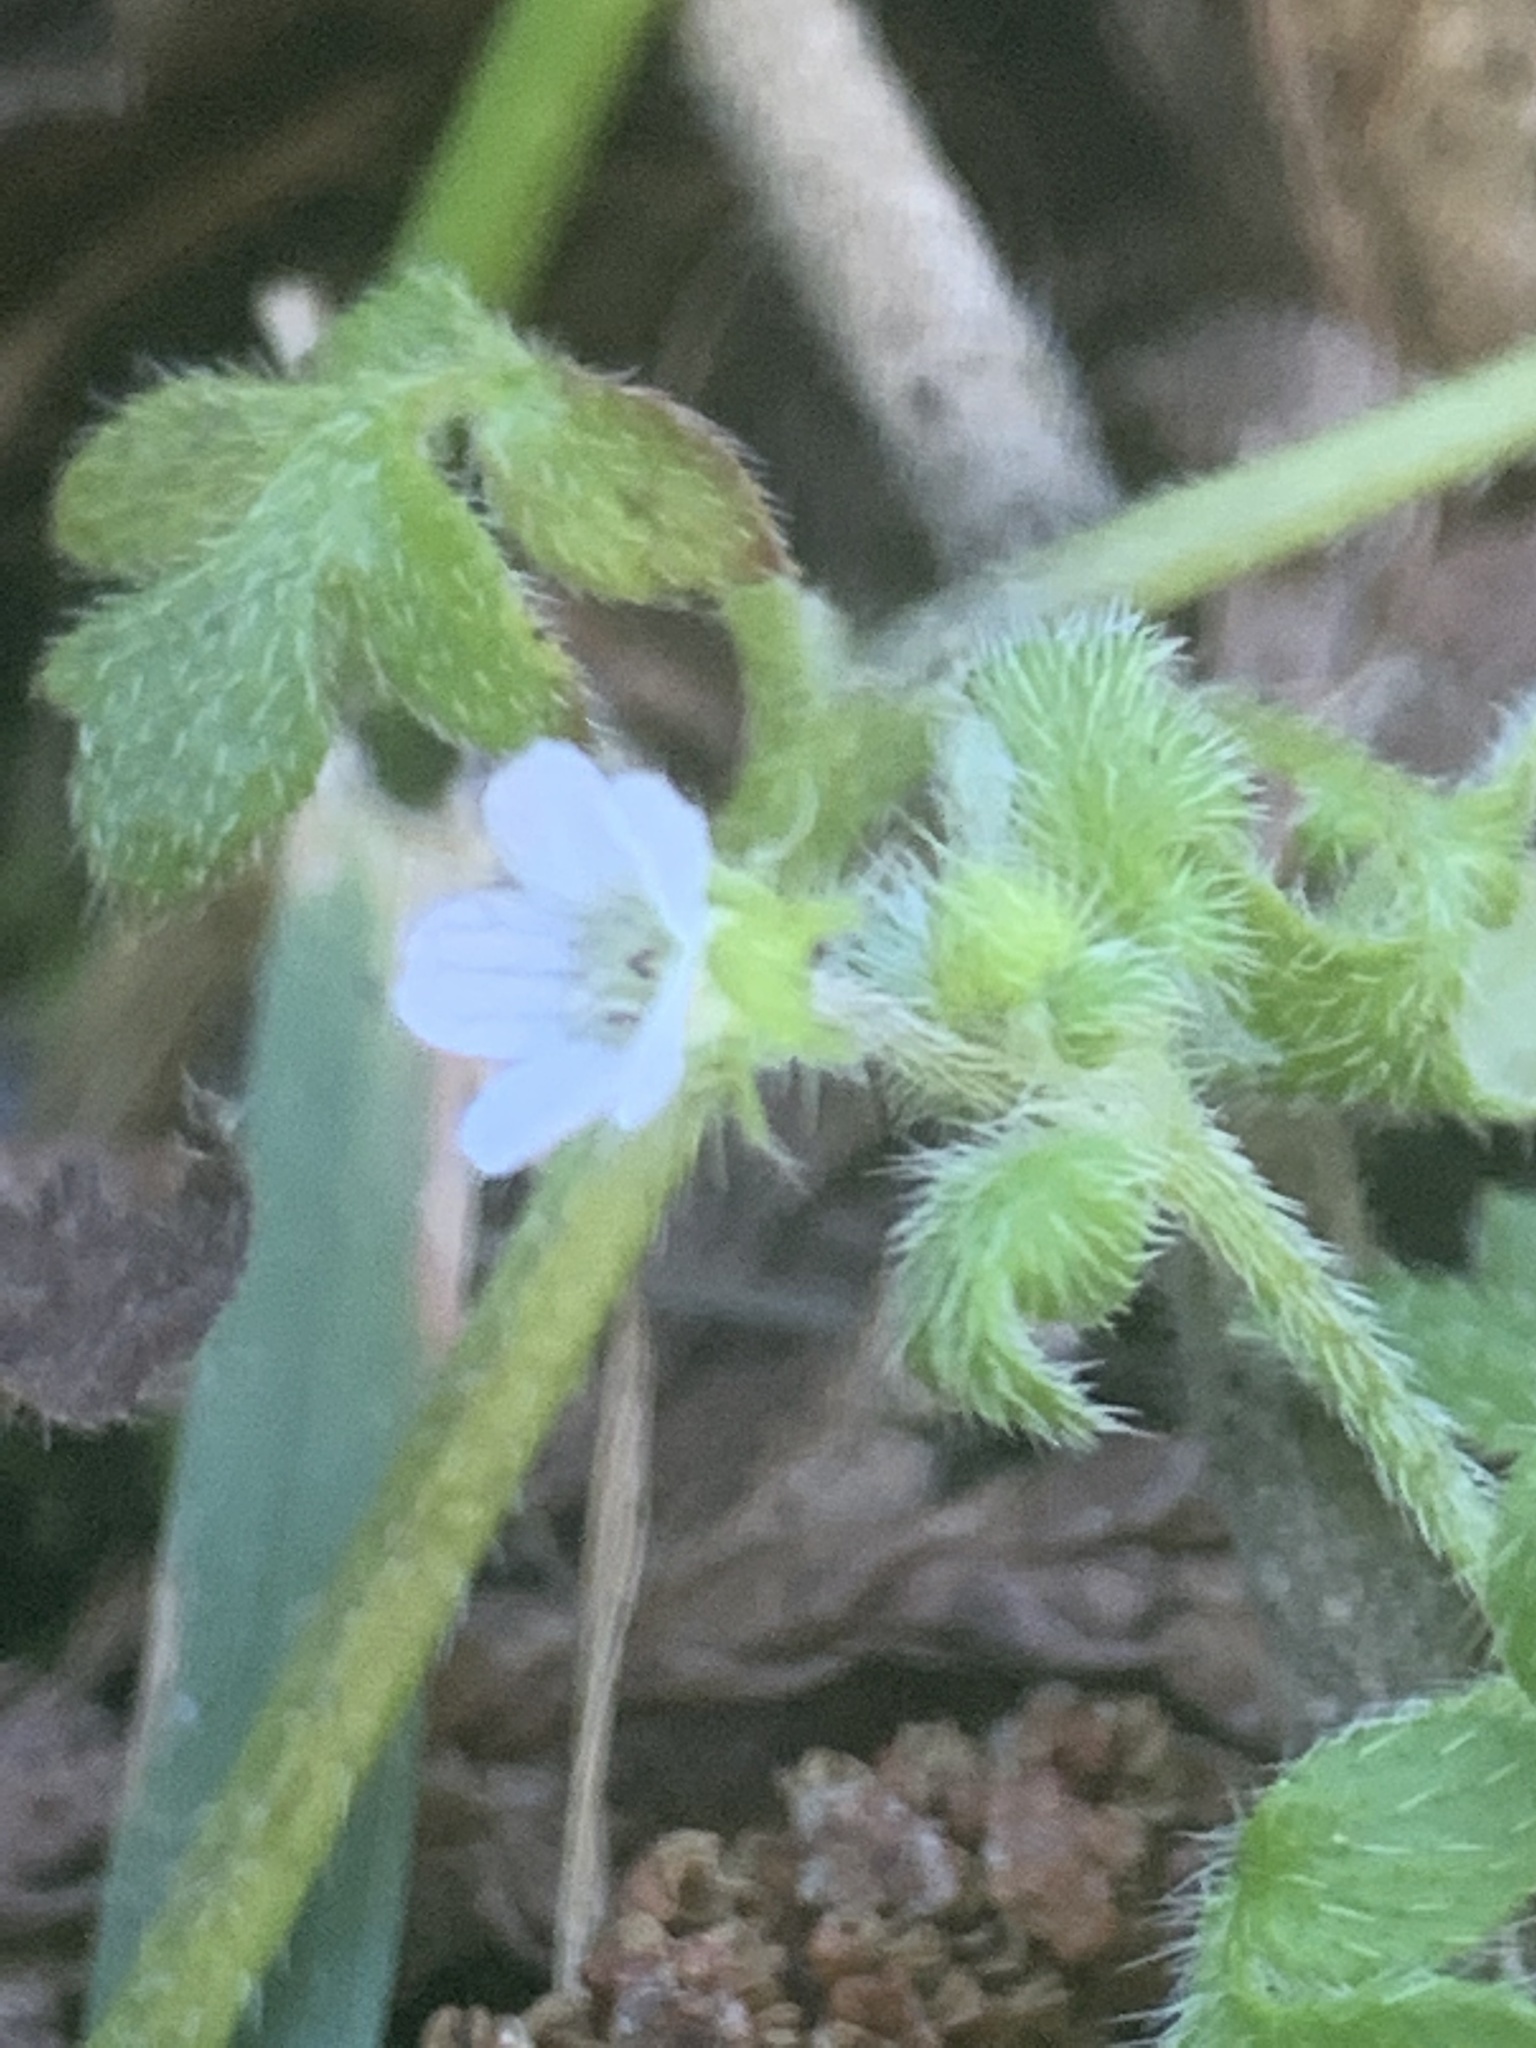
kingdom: Plantae
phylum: Tracheophyta
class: Magnoliopsida
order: Boraginales
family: Hydrophyllaceae
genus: Nemophila
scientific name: Nemophila parviflora
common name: Small-flowered baby-blue-eyes
